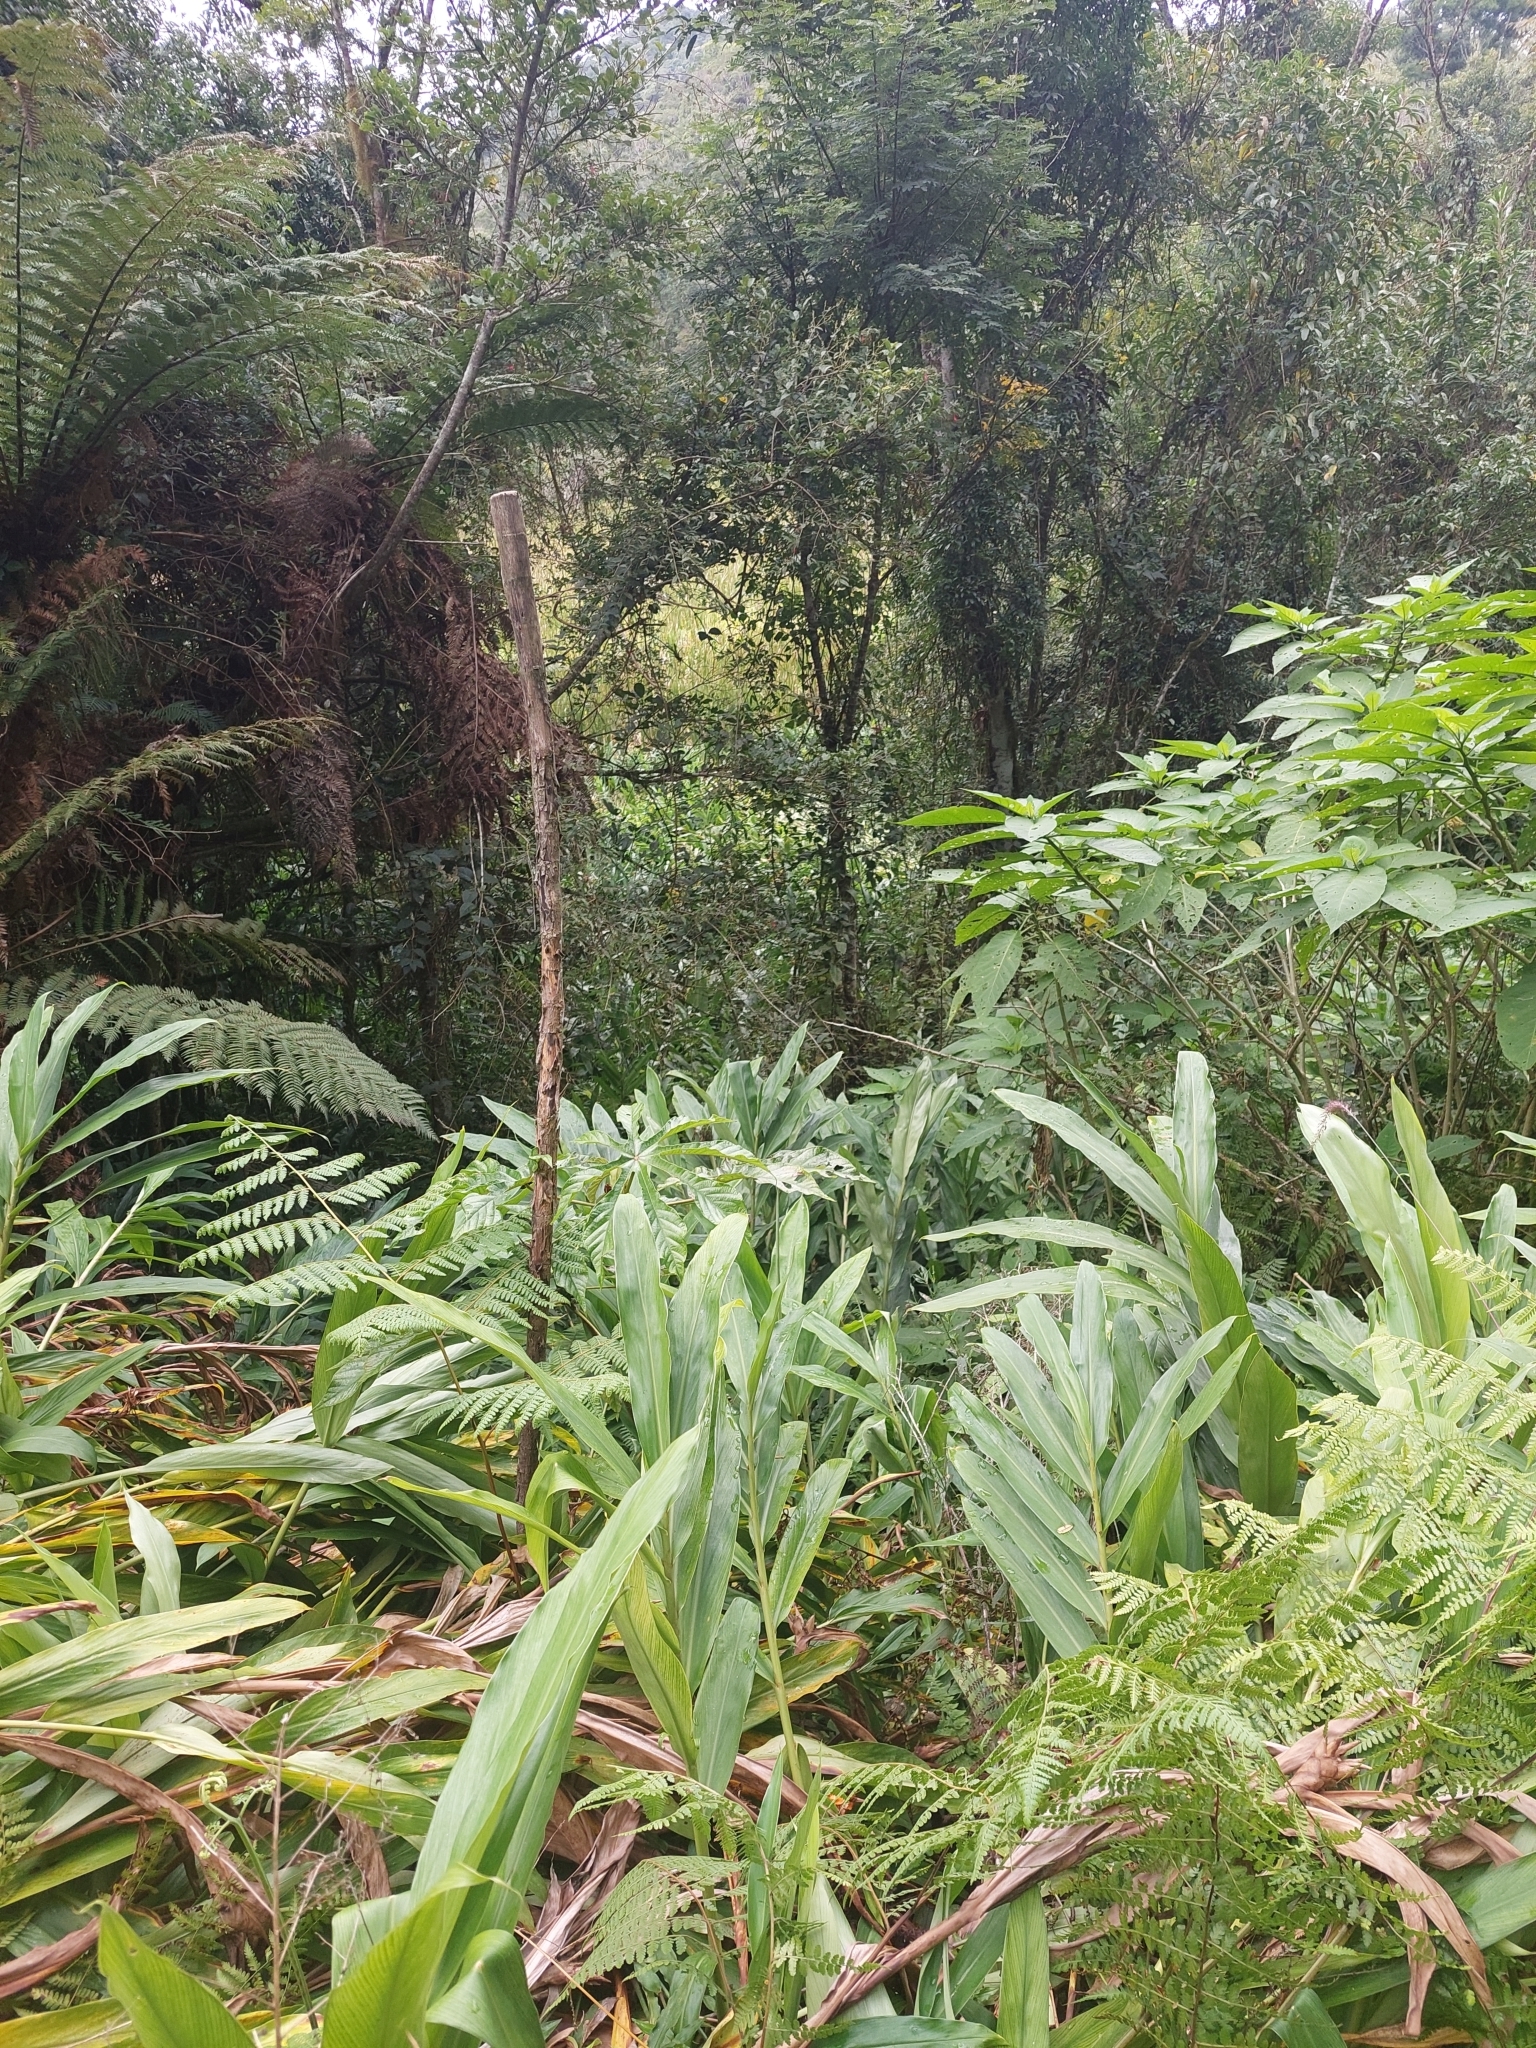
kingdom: Plantae
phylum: Tracheophyta
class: Liliopsida
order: Zingiberales
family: Zingiberaceae
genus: Hedychium
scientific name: Hedychium coronarium
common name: White garland-lily
